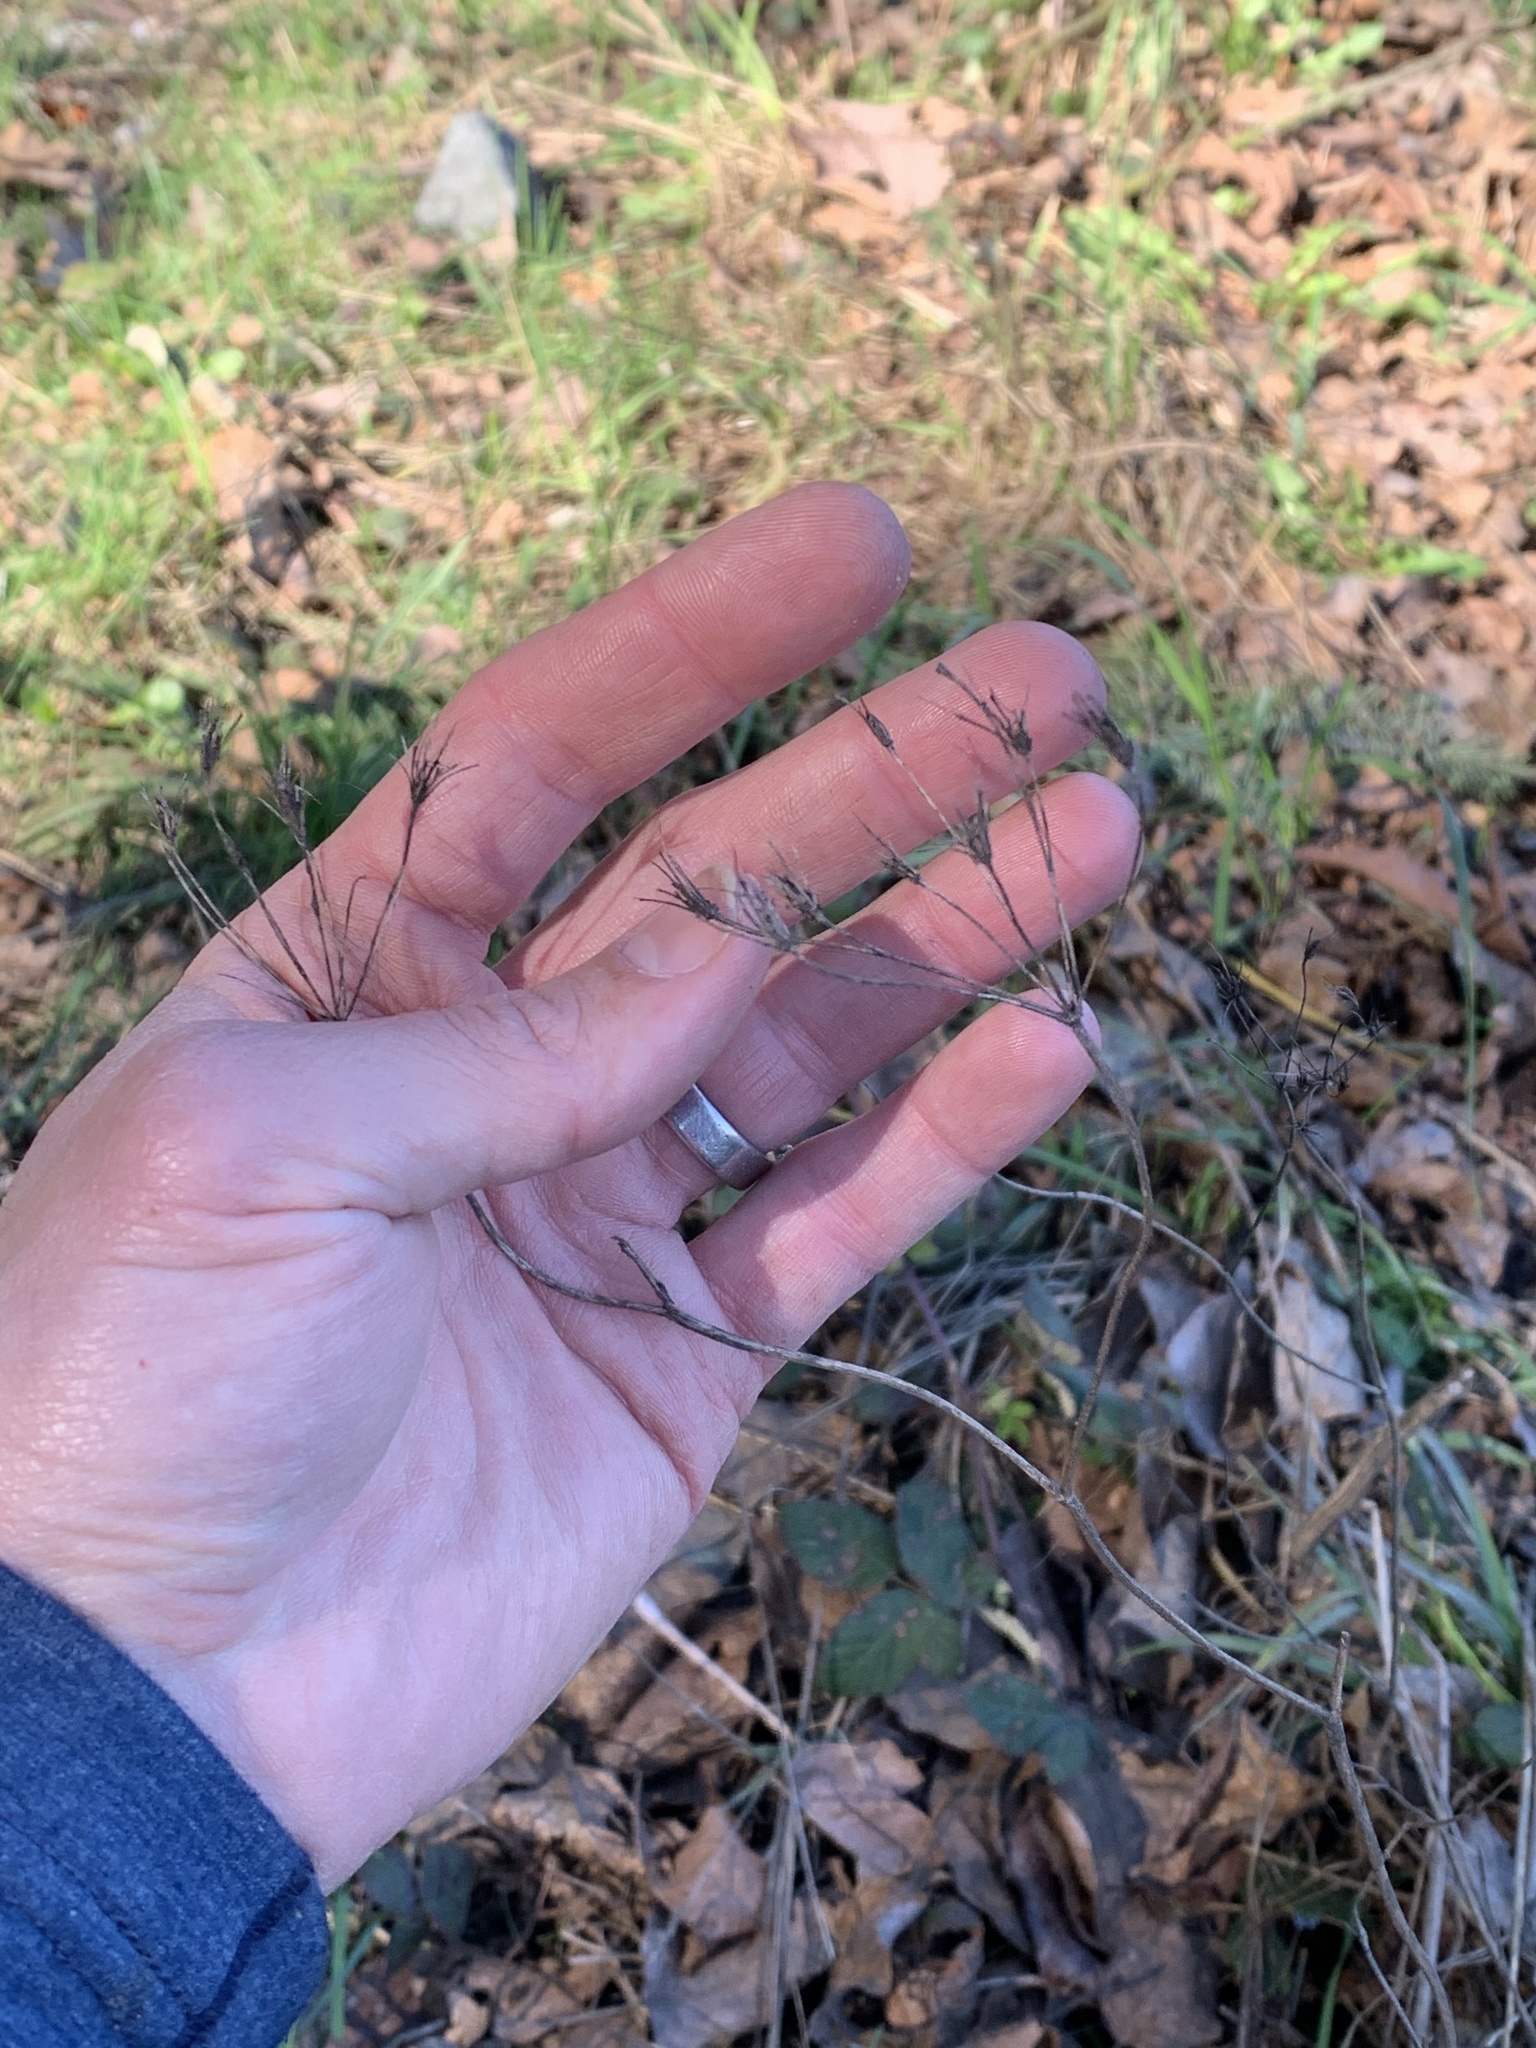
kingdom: Plantae
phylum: Tracheophyta
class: Magnoliopsida
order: Apiales
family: Apiaceae
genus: Chaerophyllum
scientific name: Chaerophyllum temulum
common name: Rough chervil
